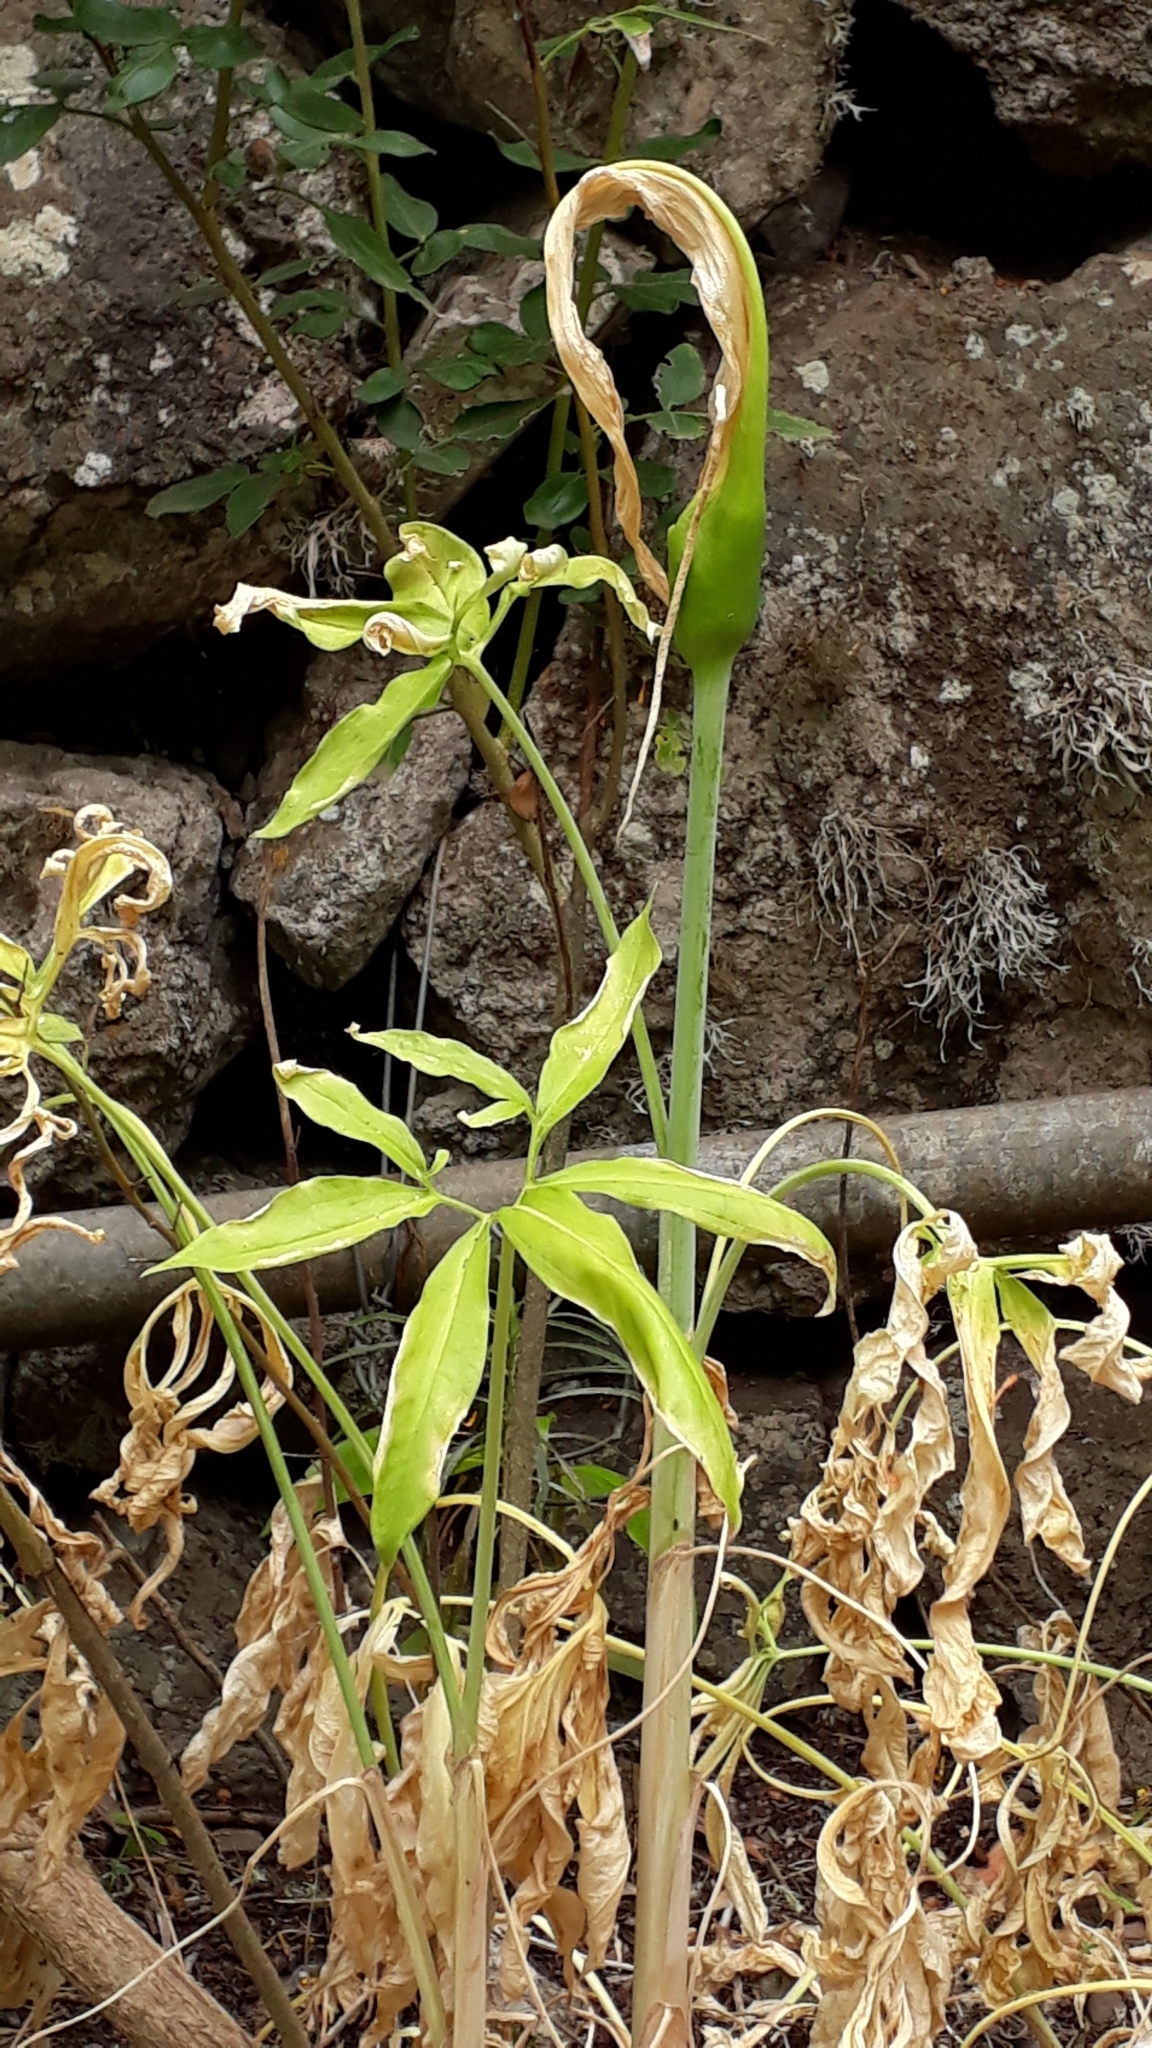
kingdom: Plantae
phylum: Tracheophyta
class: Liliopsida
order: Alismatales
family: Araceae
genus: Dracunculus
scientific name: Dracunculus canariensis
